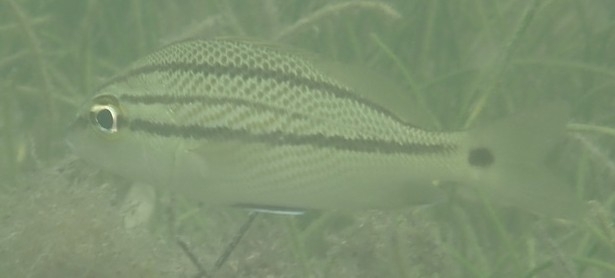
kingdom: Animalia
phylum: Chordata
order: Perciformes
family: Haemulidae
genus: Haemulon
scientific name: Haemulon parra
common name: Sailor's choice
